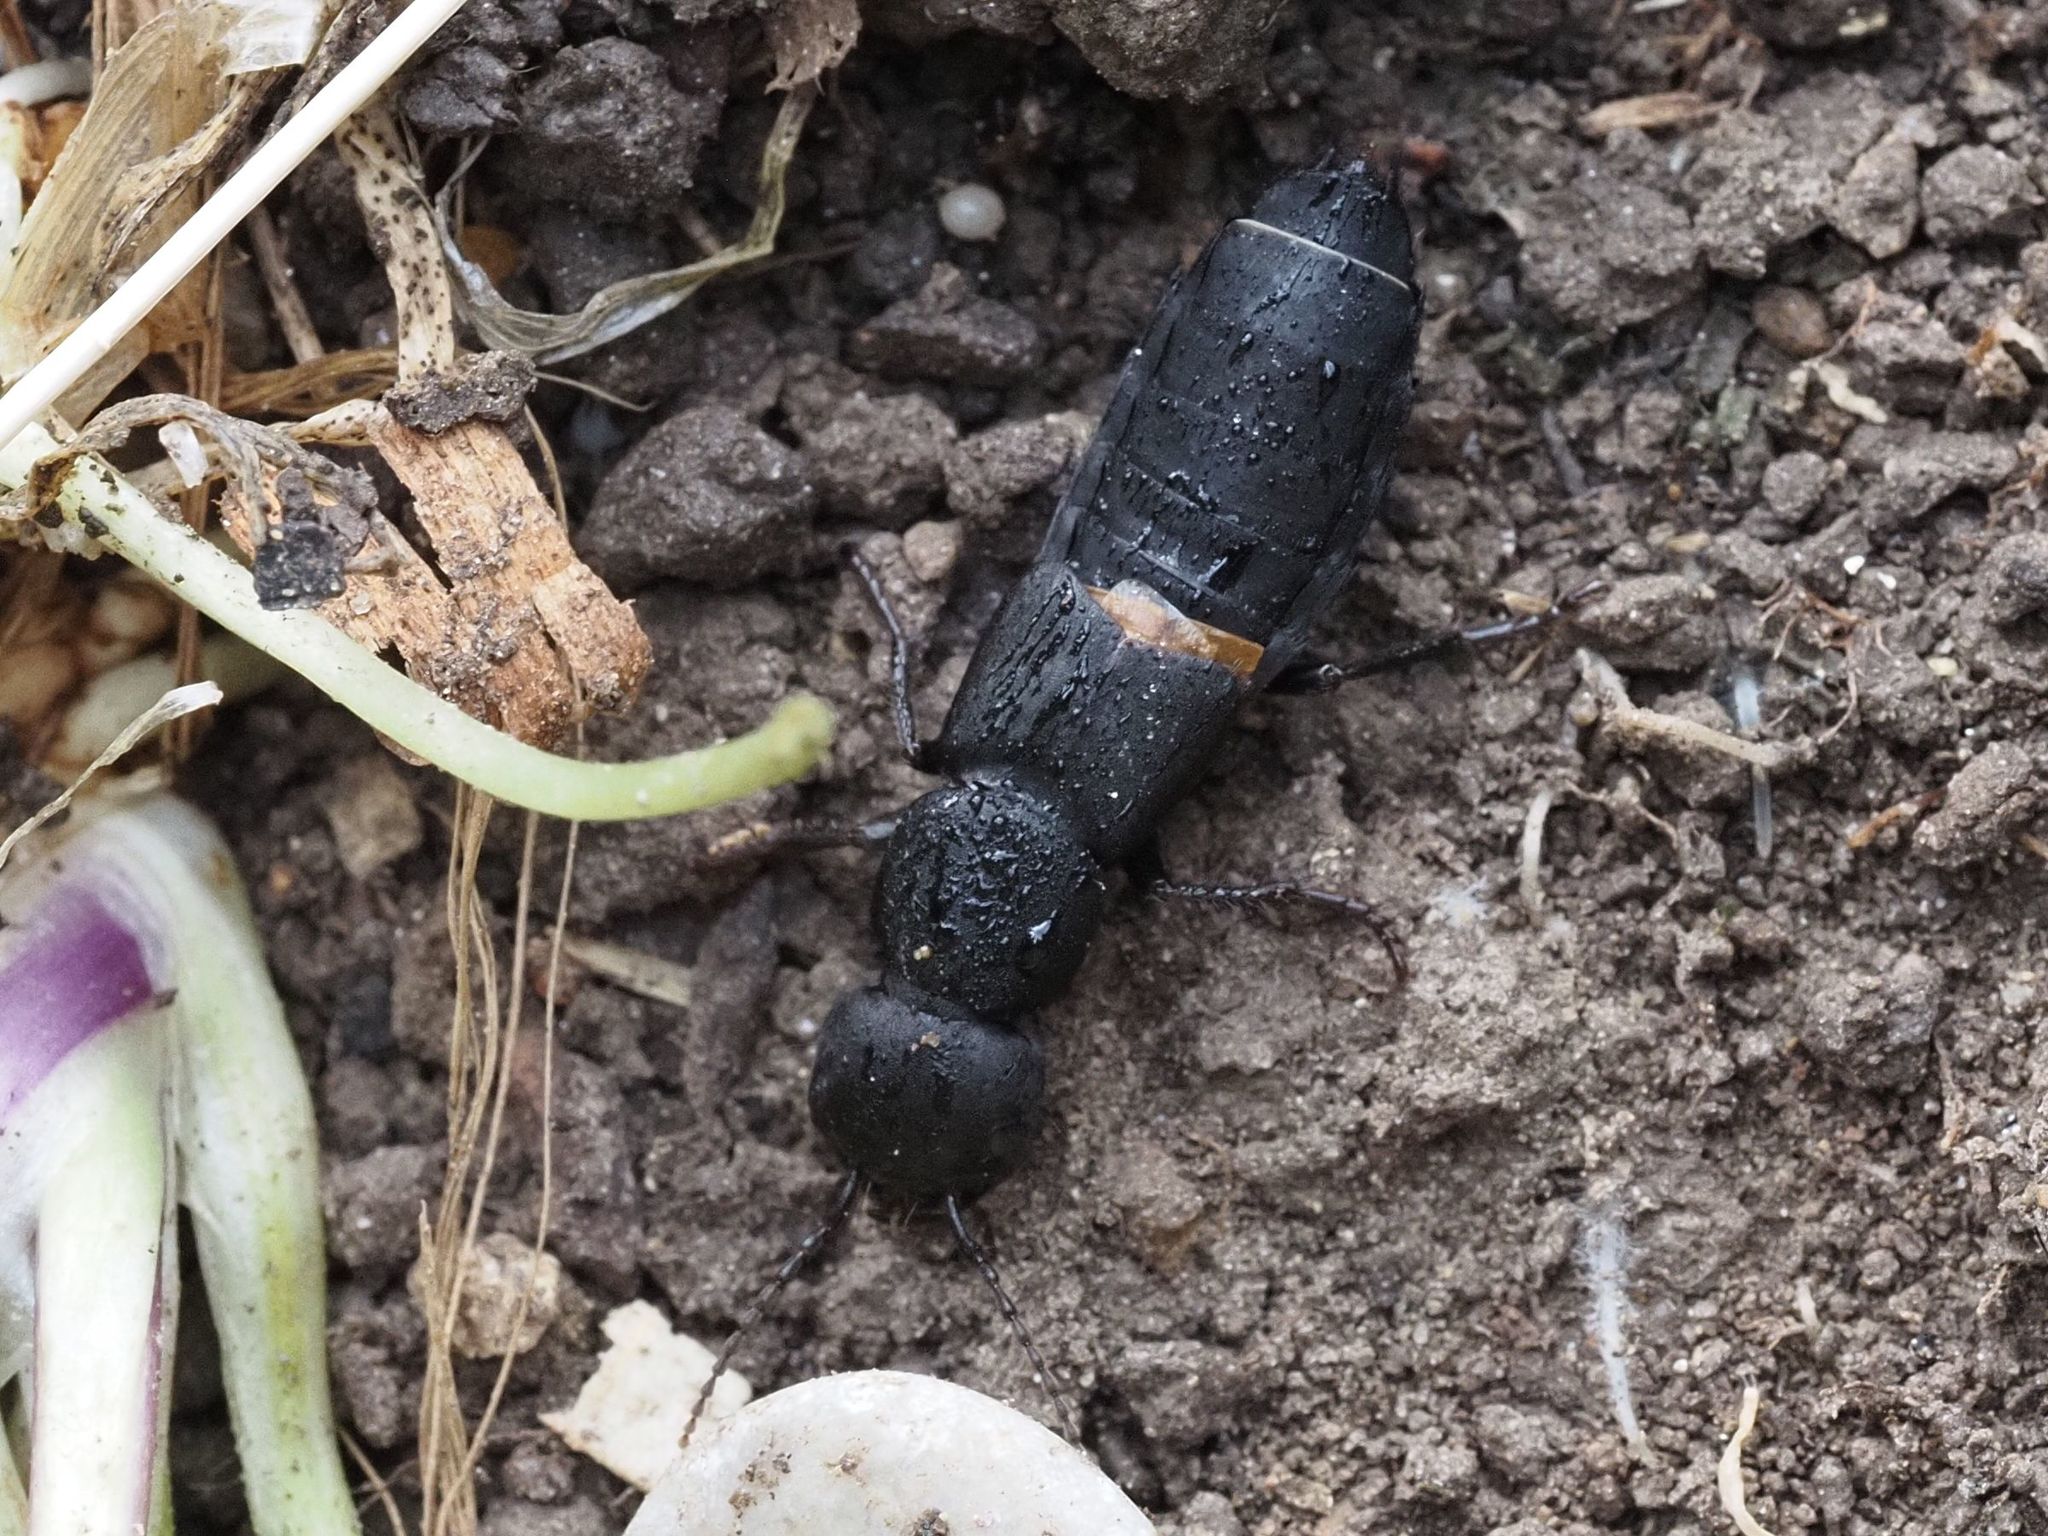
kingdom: Animalia
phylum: Arthropoda
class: Insecta
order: Coleoptera
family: Staphylinidae
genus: Ocypus
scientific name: Ocypus olens
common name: Devil's coach-horse
